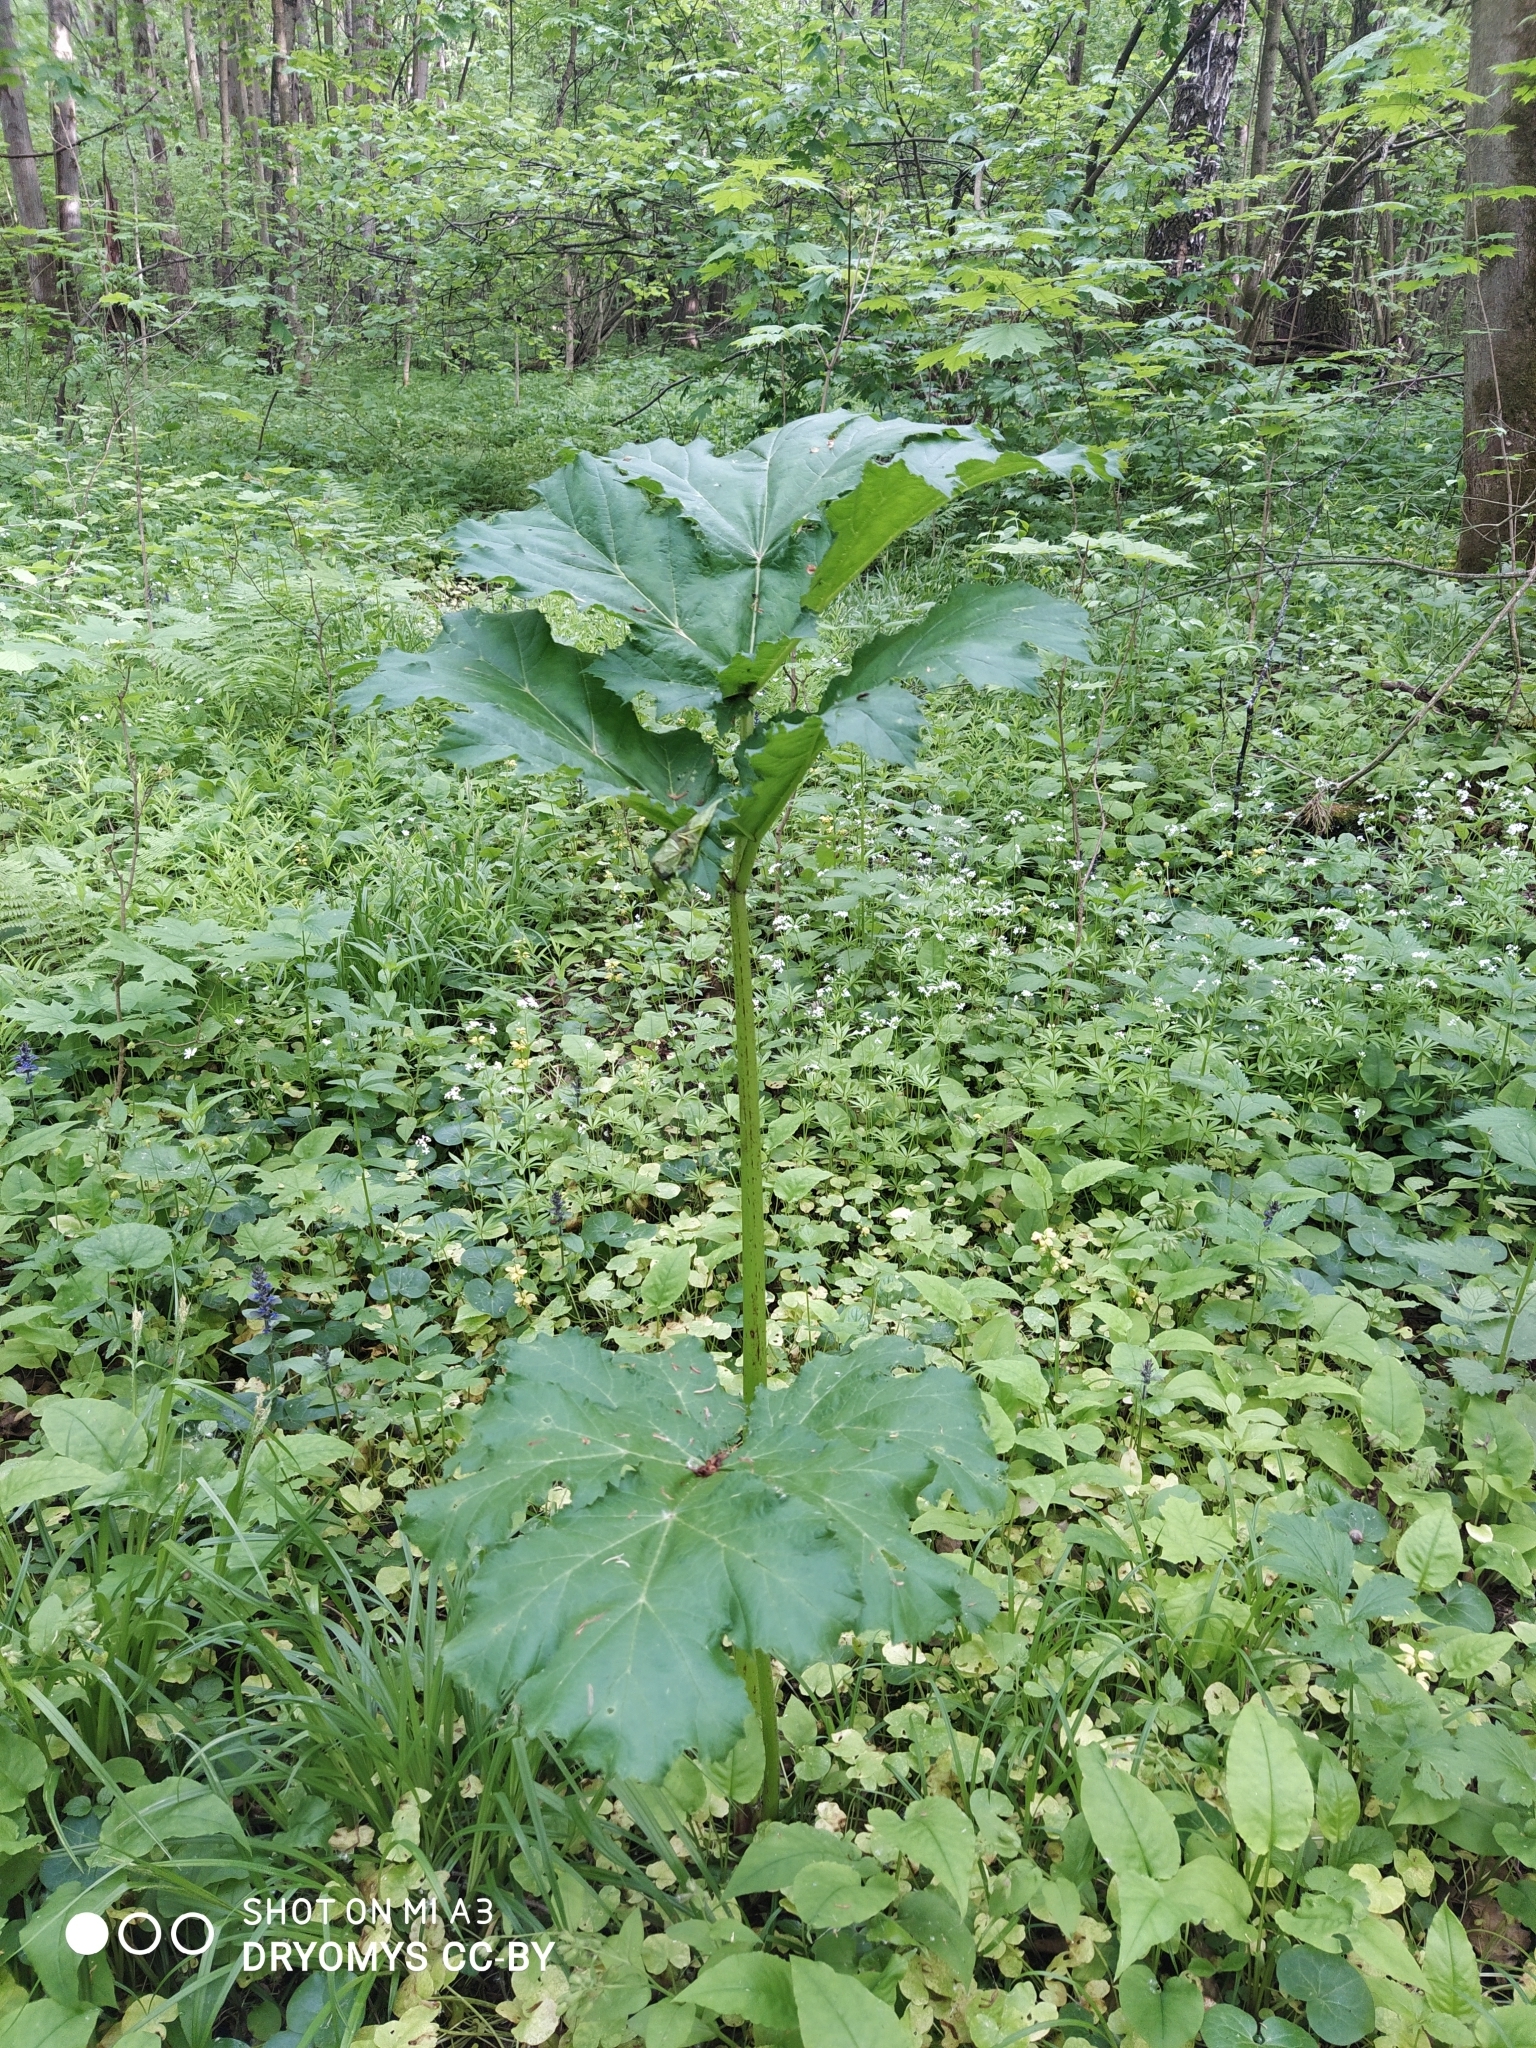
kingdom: Plantae
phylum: Tracheophyta
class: Magnoliopsida
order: Apiales
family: Apiaceae
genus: Heracleum
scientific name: Heracleum sosnowskyi
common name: Sosnowsky's hogweed
